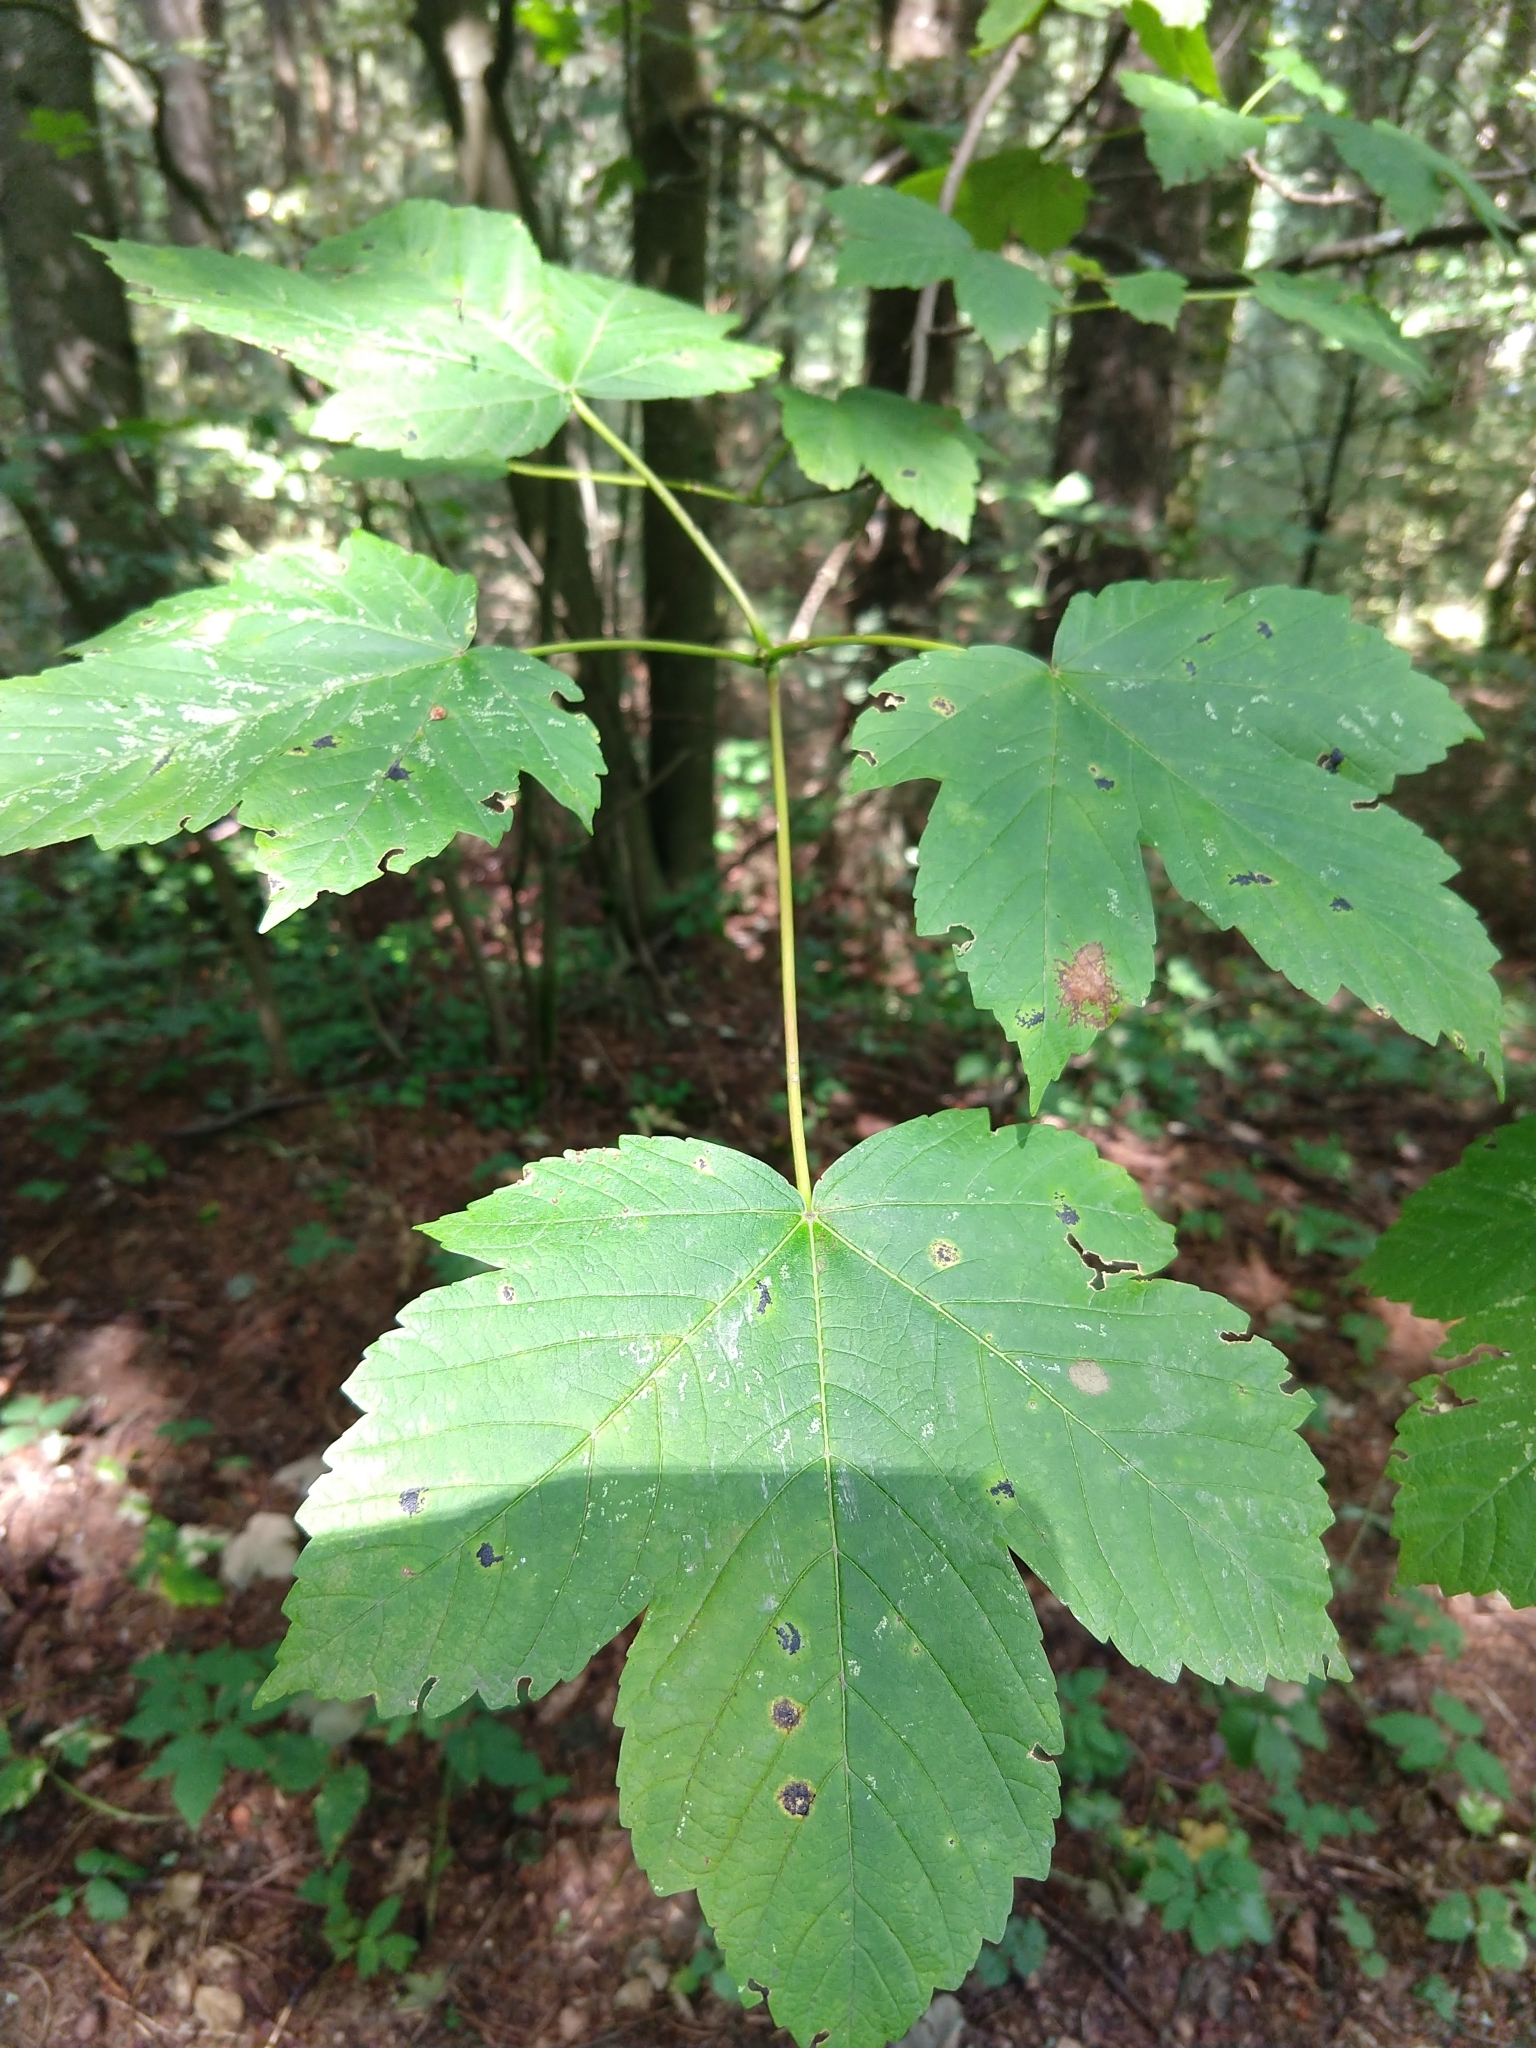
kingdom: Plantae
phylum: Tracheophyta
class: Magnoliopsida
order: Sapindales
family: Sapindaceae
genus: Acer
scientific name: Acer pseudoplatanus
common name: Sycamore
